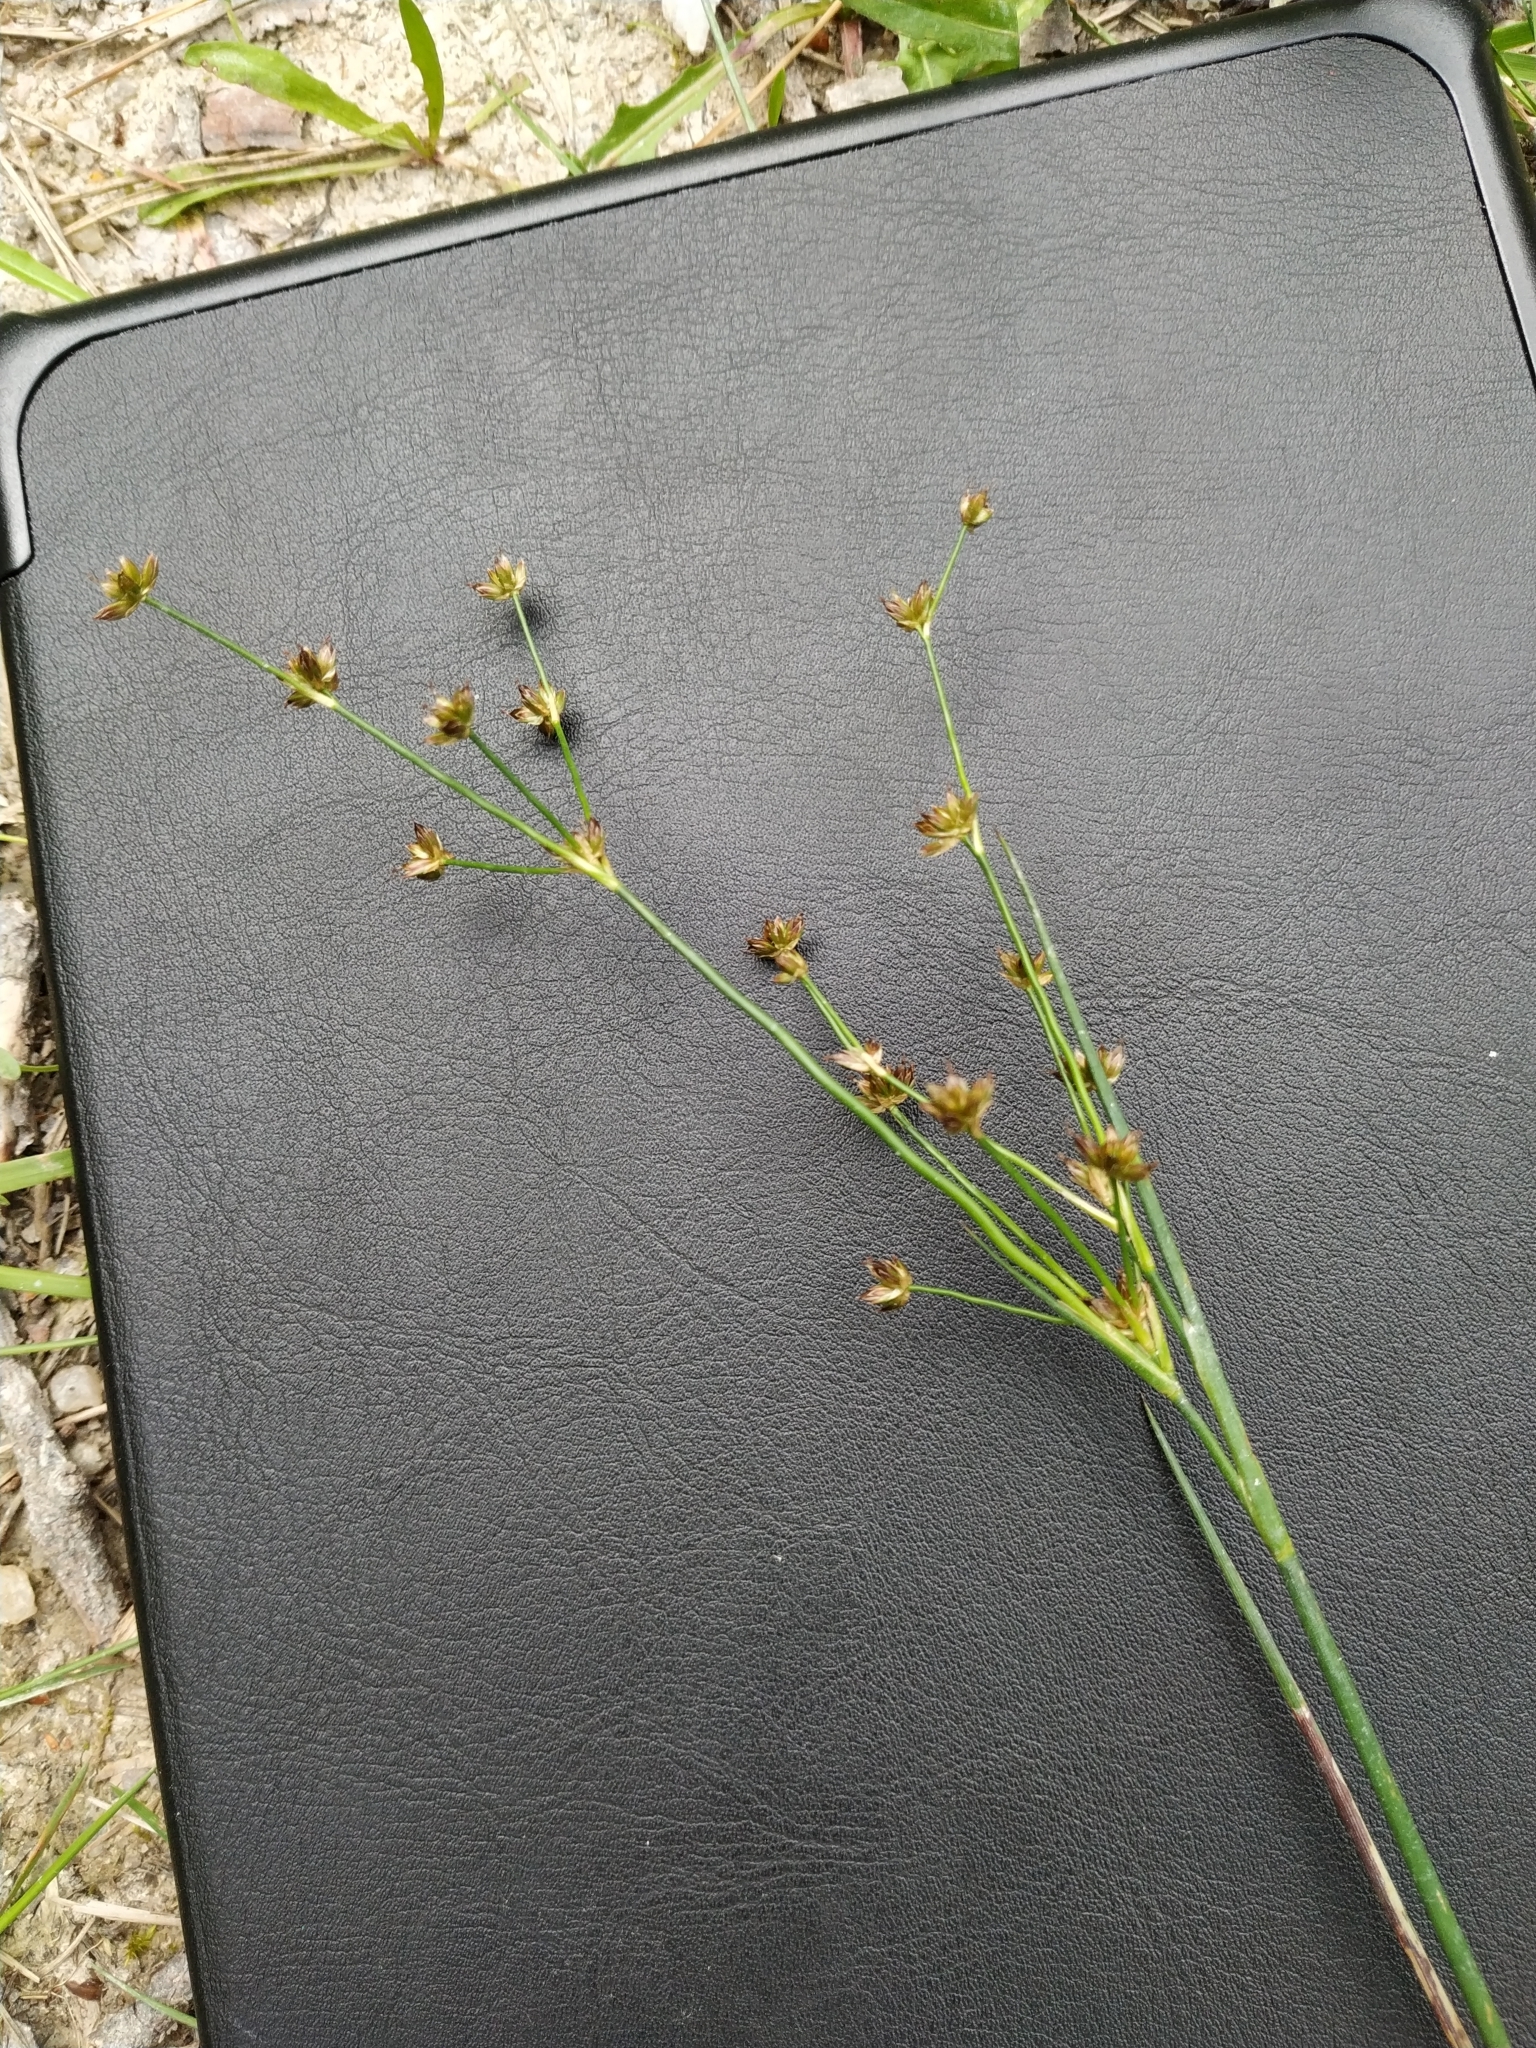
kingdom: Plantae
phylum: Tracheophyta
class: Liliopsida
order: Poales
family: Juncaceae
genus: Juncus
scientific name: Juncus articulatus
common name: Jointed rush
